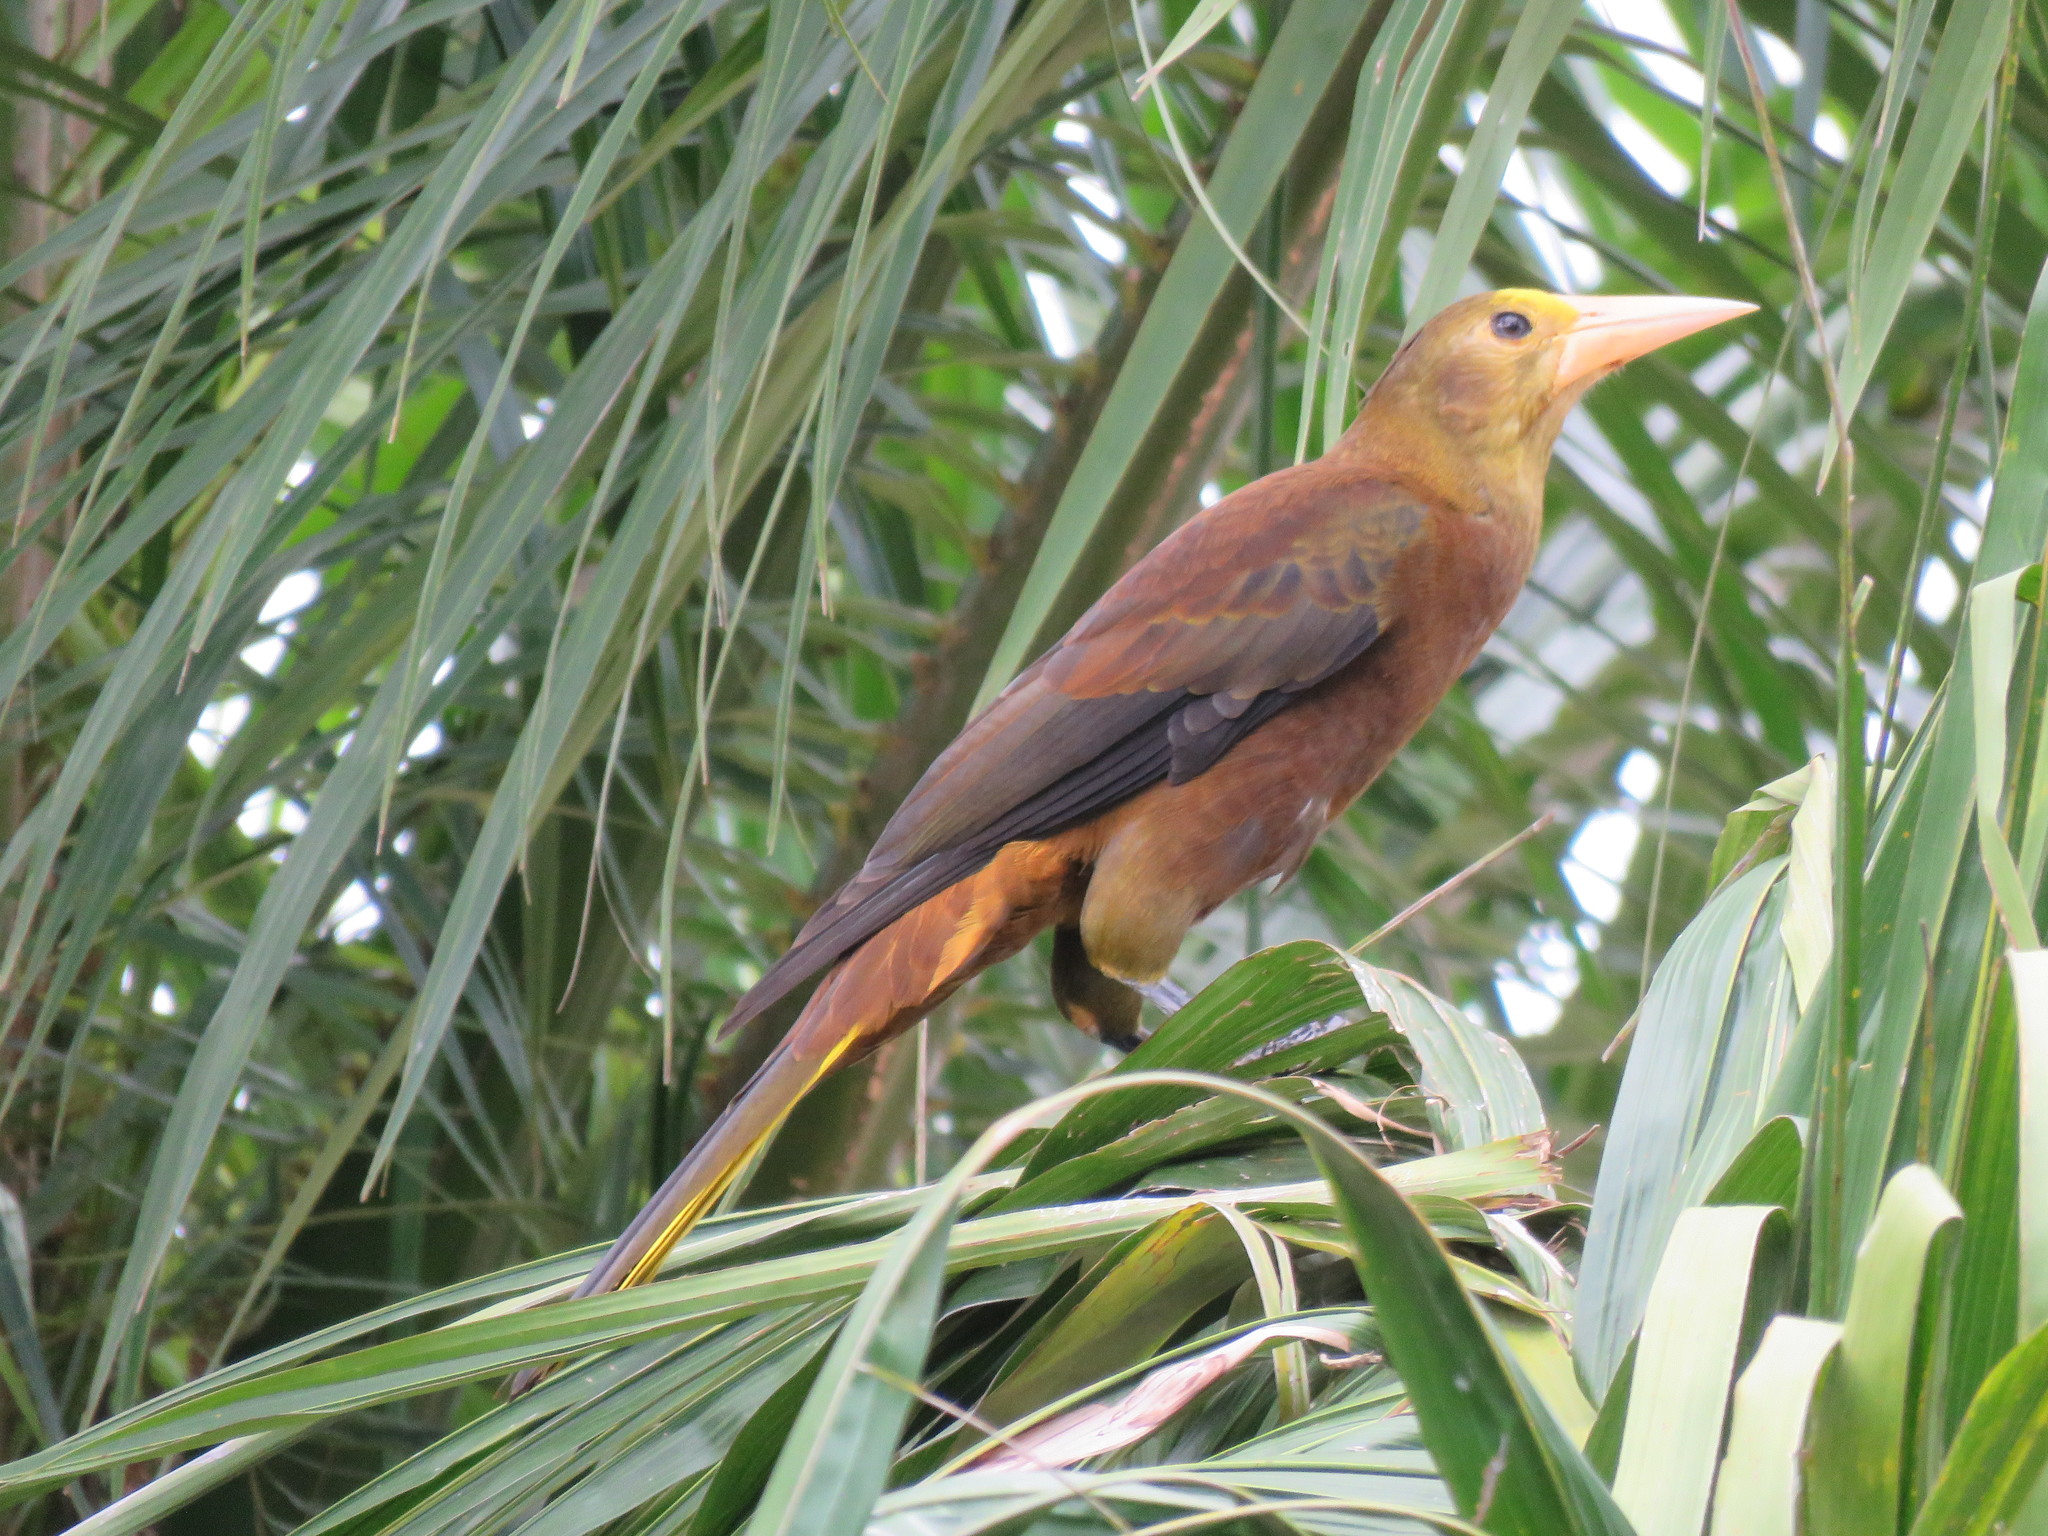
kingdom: Animalia
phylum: Chordata
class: Aves
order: Passeriformes
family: Icteridae
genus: Psarocolius
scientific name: Psarocolius angustifrons
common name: Russet-backed oropendola
